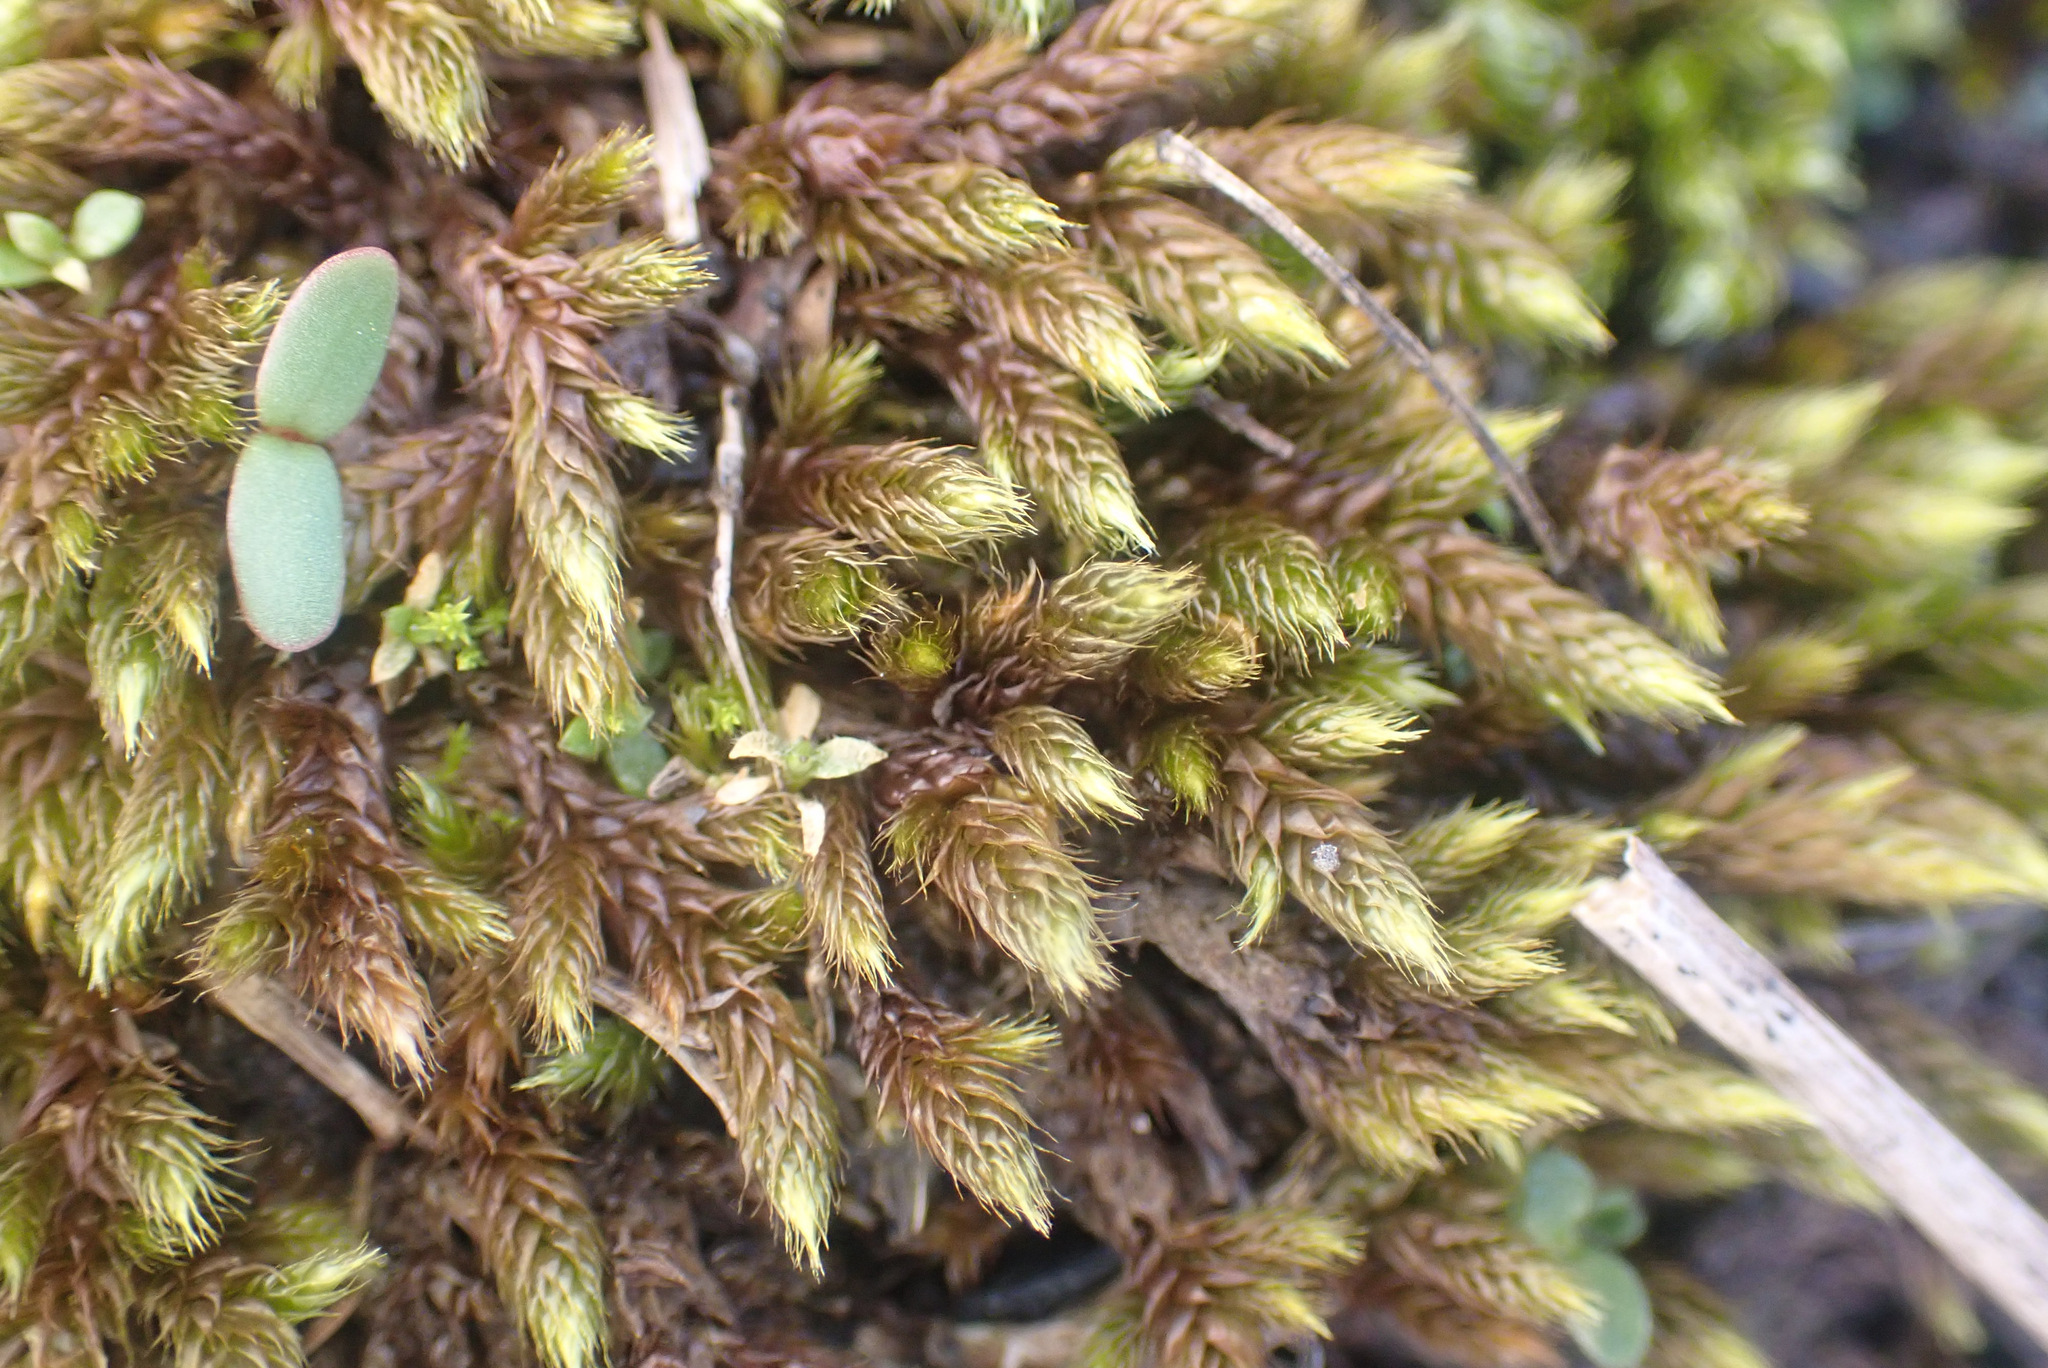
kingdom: Plantae
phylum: Bryophyta
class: Bryopsida
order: Hypnales
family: Hypnaceae
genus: Hypnum
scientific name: Hypnum cupressiforme
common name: Cypress-leaved plait-moss
